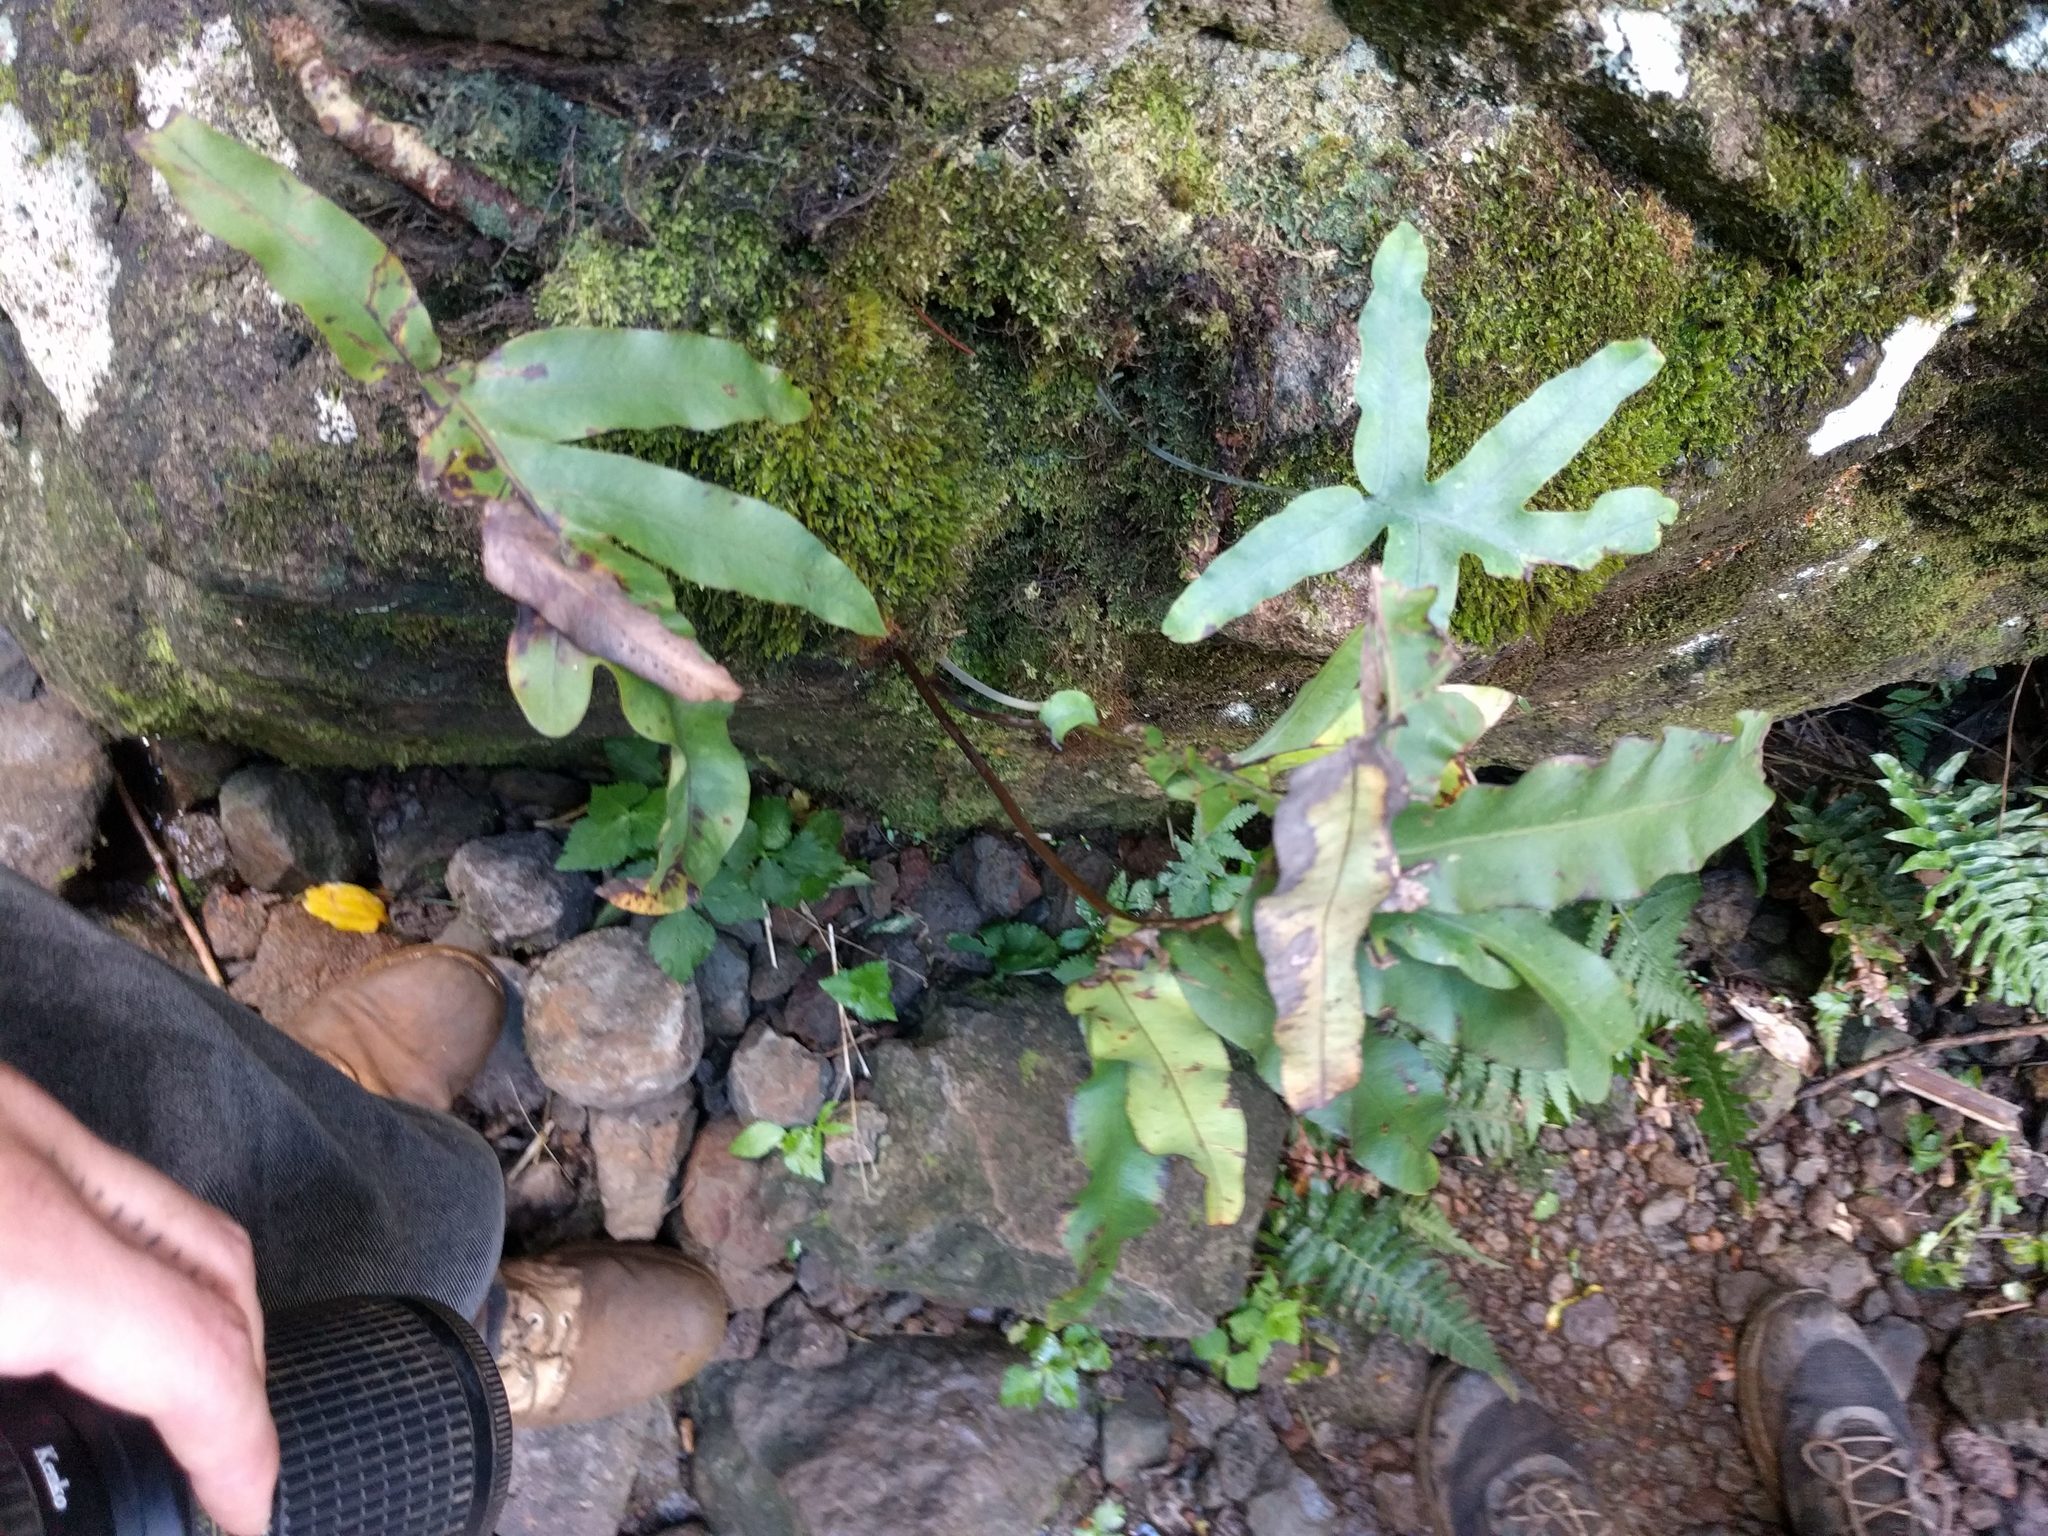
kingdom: Plantae
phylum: Tracheophyta
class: Polypodiopsida
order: Polypodiales
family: Polypodiaceae
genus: Phlebodium
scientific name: Phlebodium aureum
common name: Gold-foot fern
